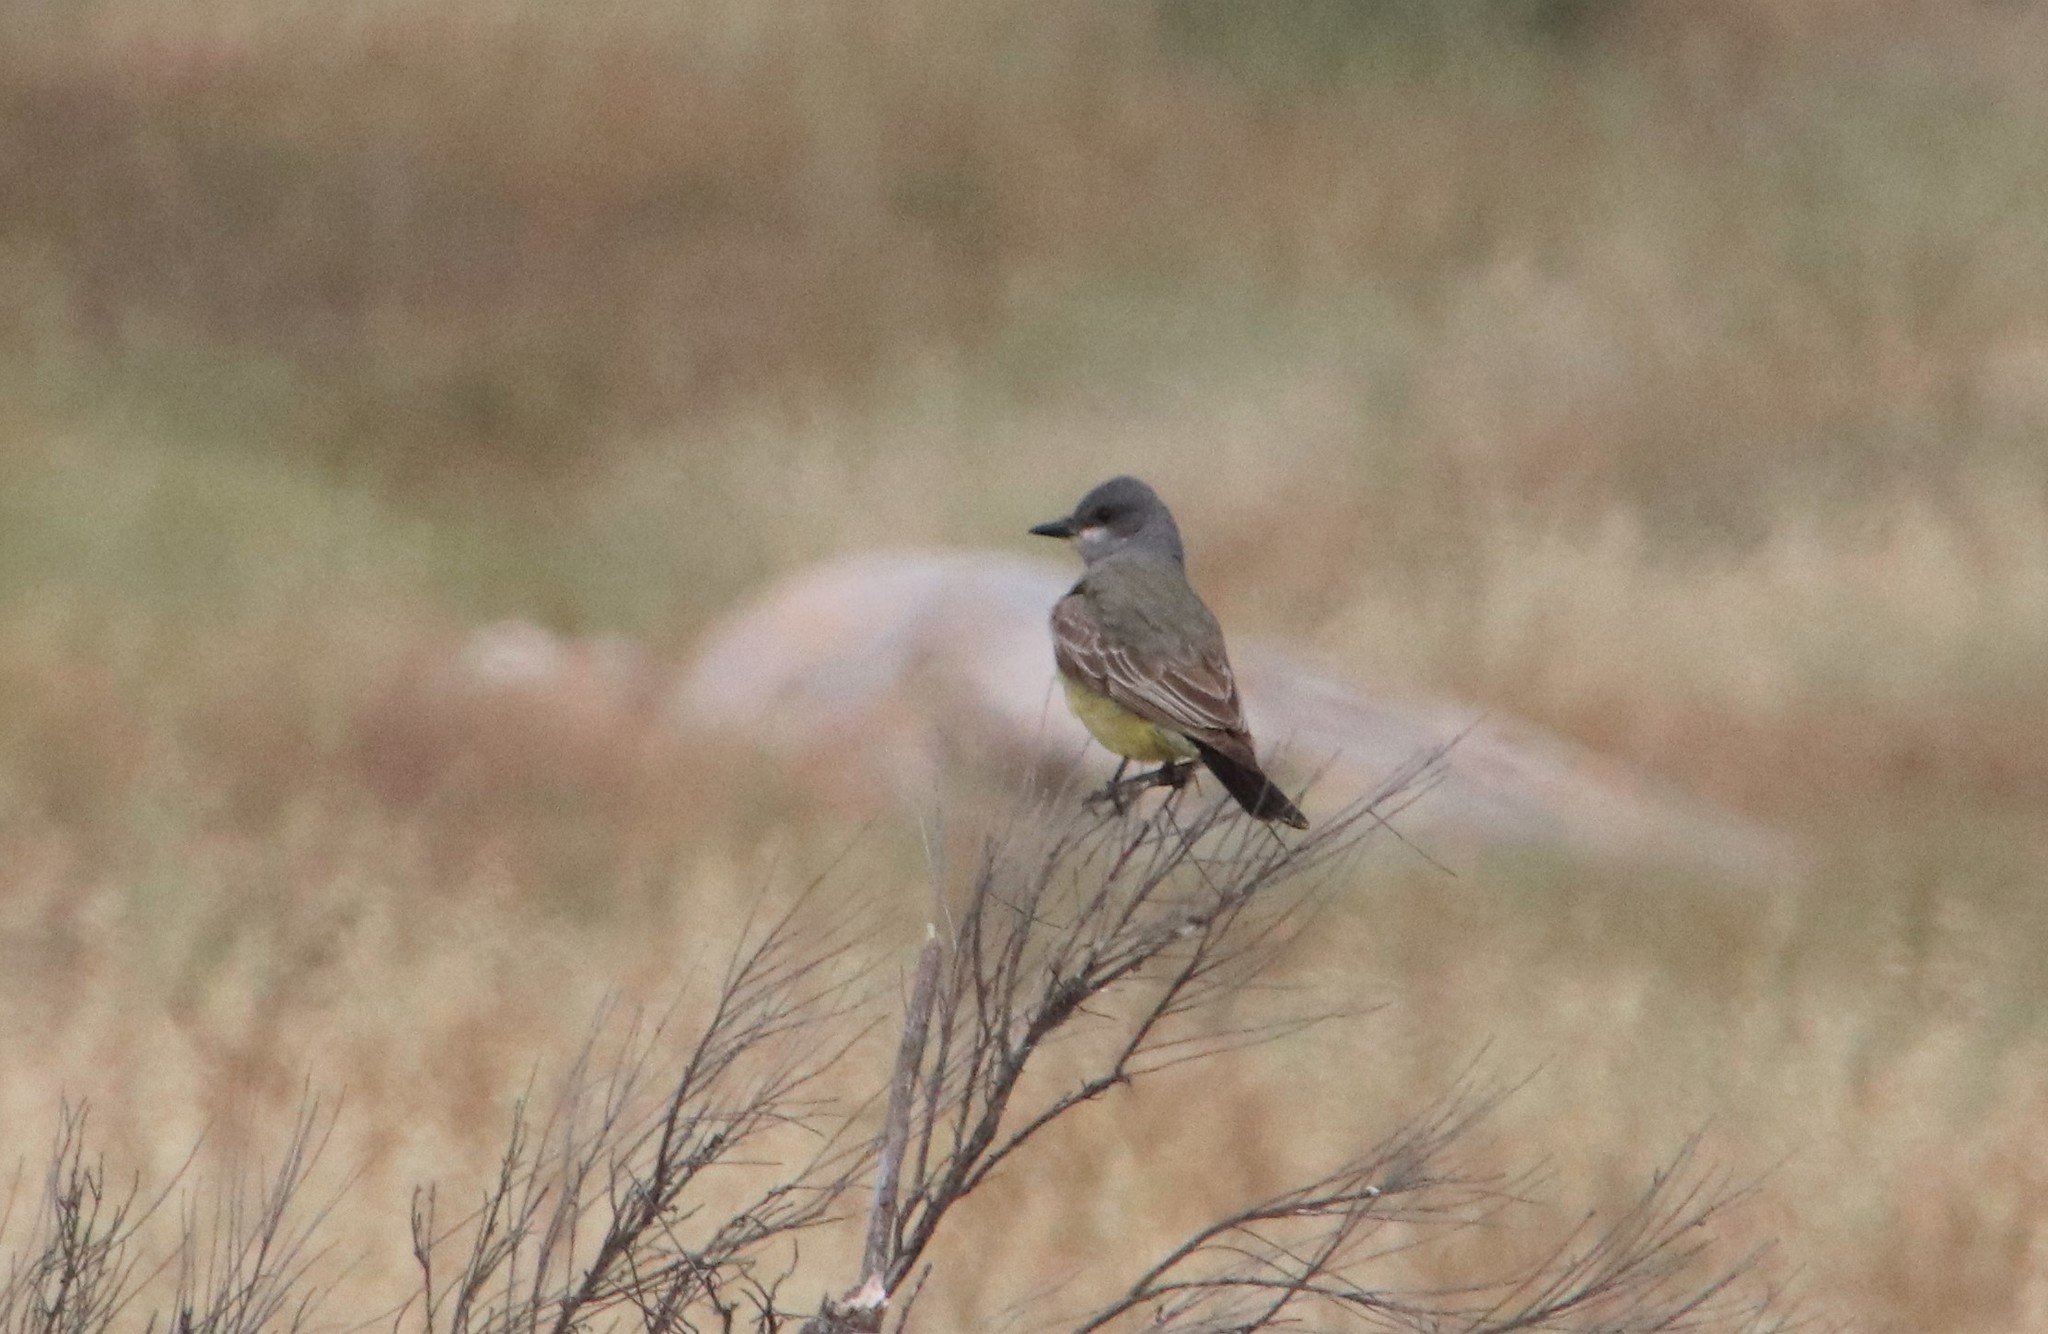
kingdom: Animalia
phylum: Chordata
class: Aves
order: Passeriformes
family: Tyrannidae
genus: Tyrannus
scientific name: Tyrannus vociferans
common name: Cassin's kingbird
